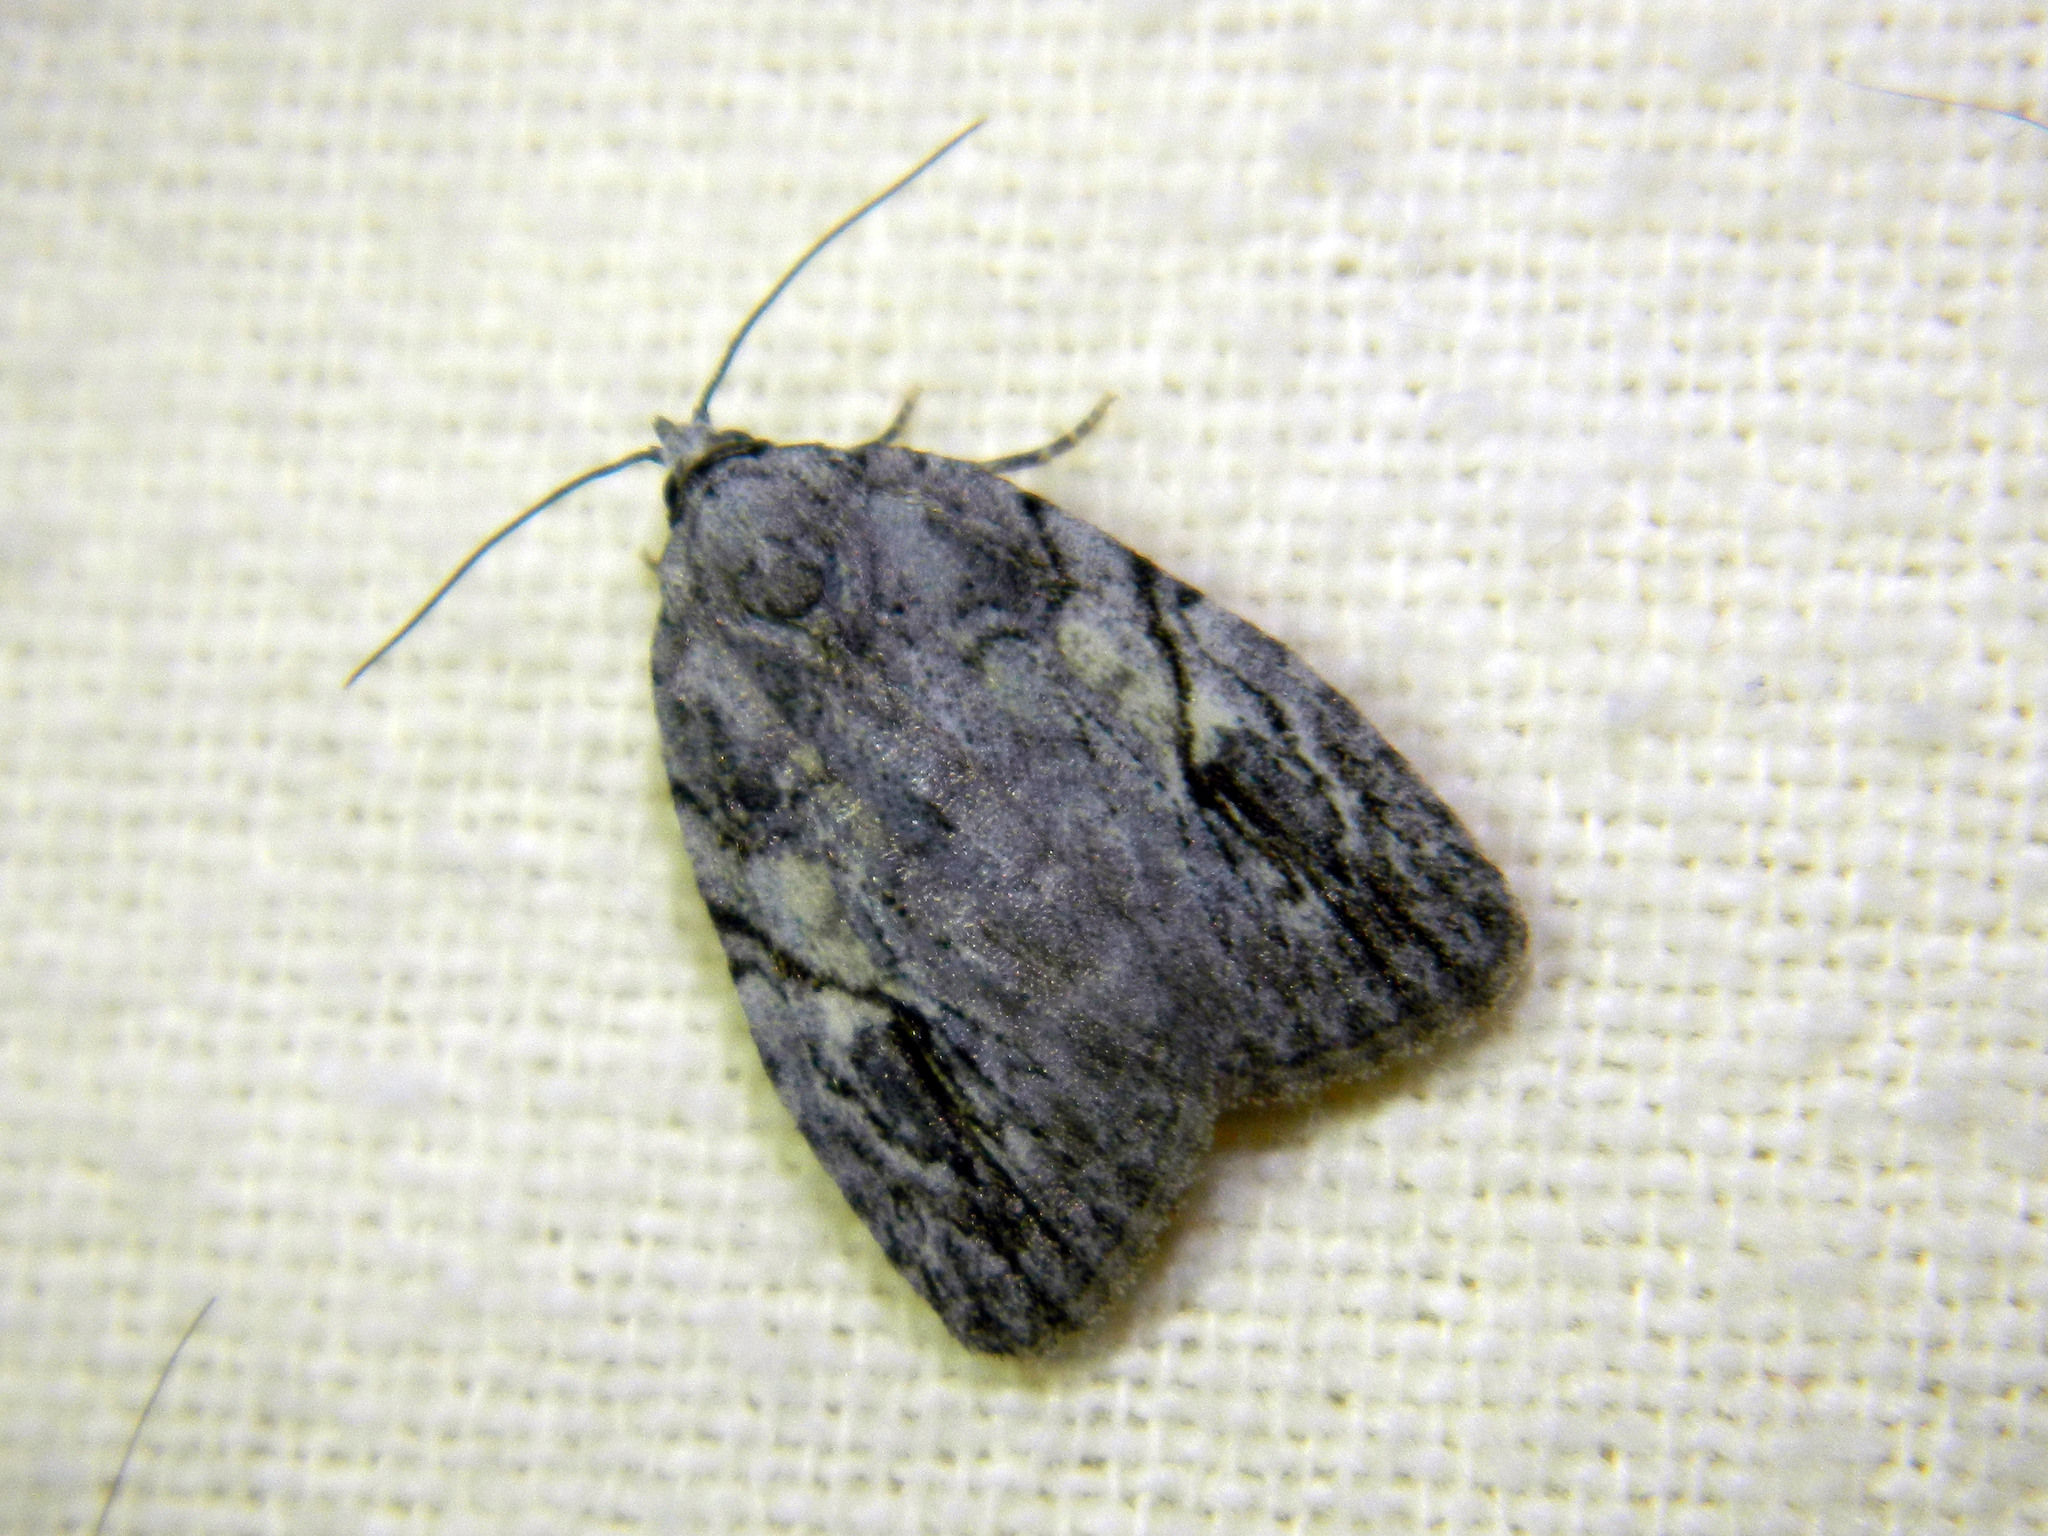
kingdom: Animalia
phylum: Arthropoda
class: Insecta
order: Lepidoptera
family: Noctuidae
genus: Balsa
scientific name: Balsa labecula
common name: White-blotched balsa moth
